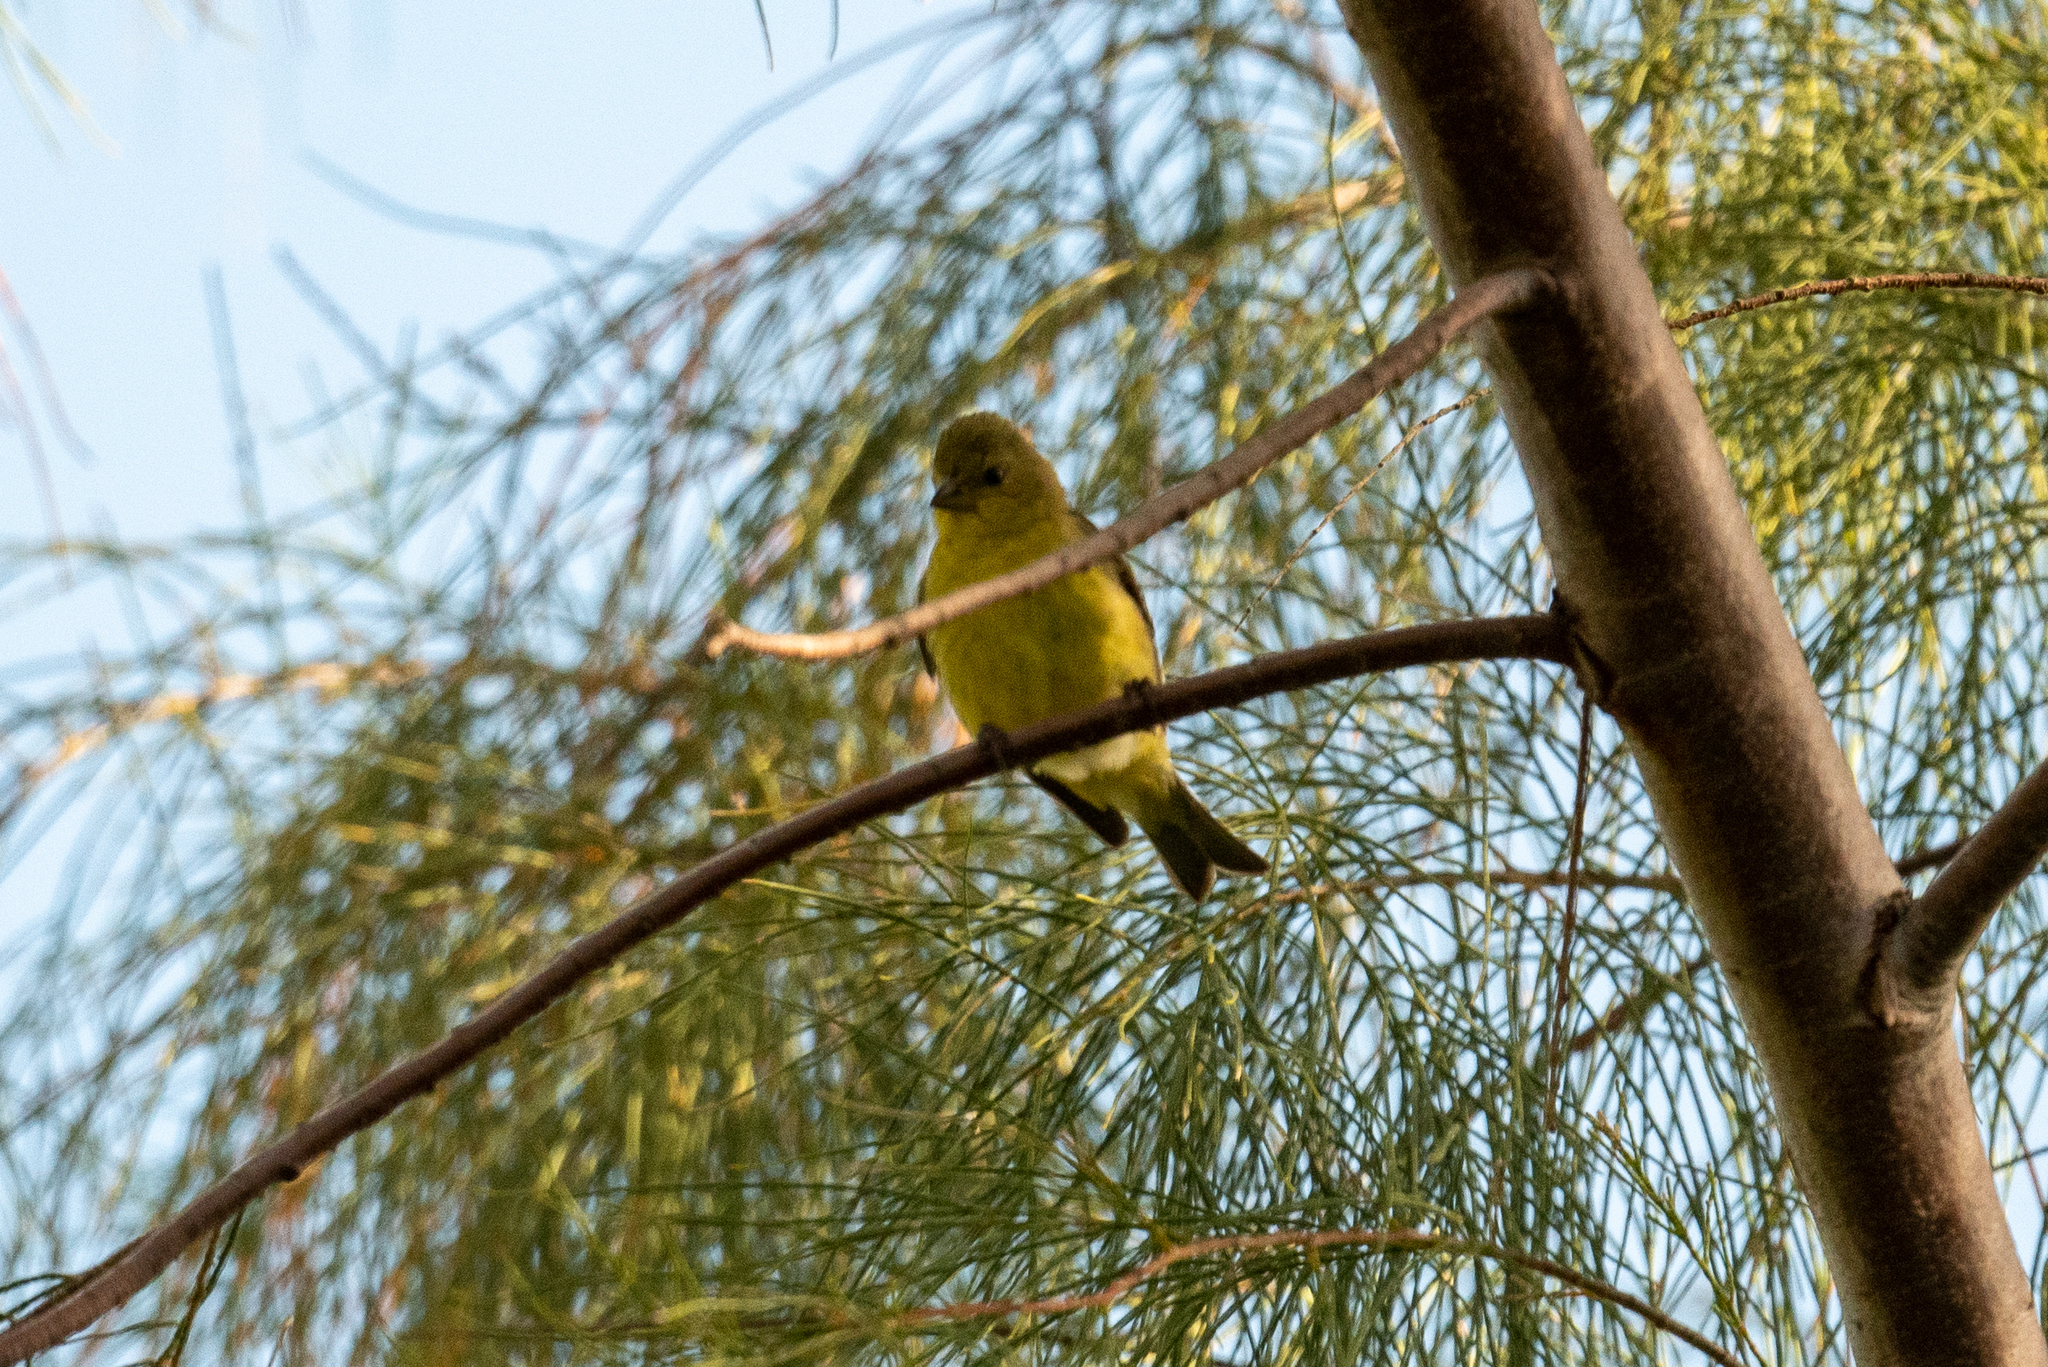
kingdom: Animalia
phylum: Chordata
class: Aves
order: Passeriformes
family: Fringillidae
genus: Spinus
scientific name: Spinus psaltria
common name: Lesser goldfinch
